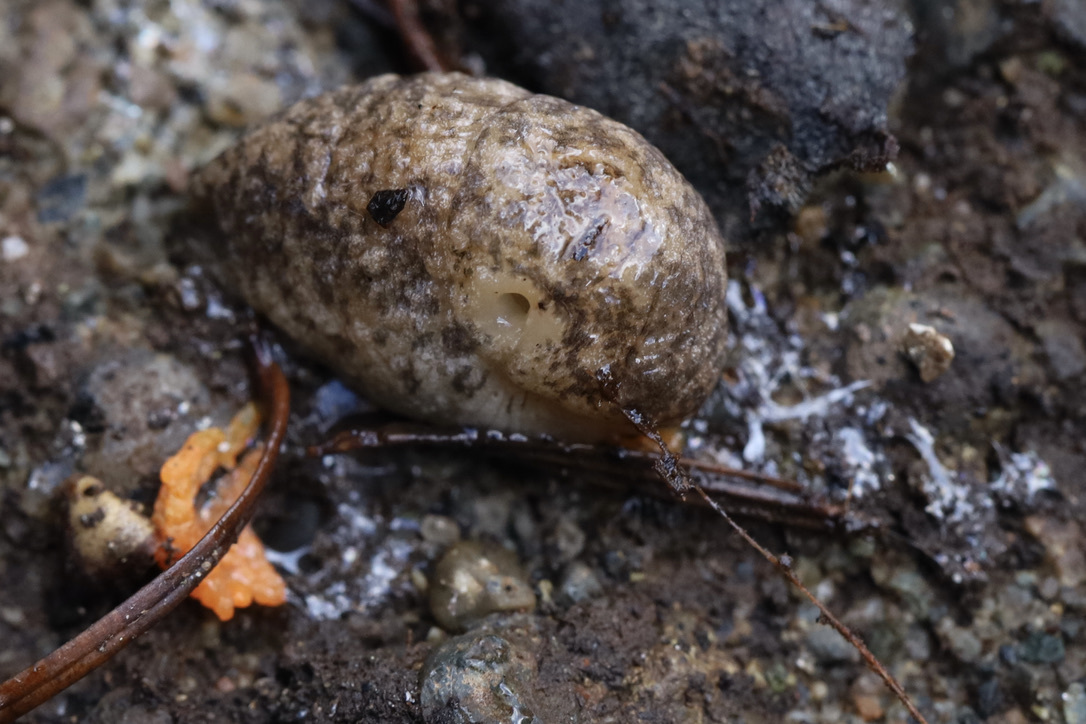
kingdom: Animalia
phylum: Mollusca
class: Gastropoda
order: Stylommatophora
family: Agriolimacidae
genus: Deroceras
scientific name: Deroceras reticulatum
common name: Gray field slug
